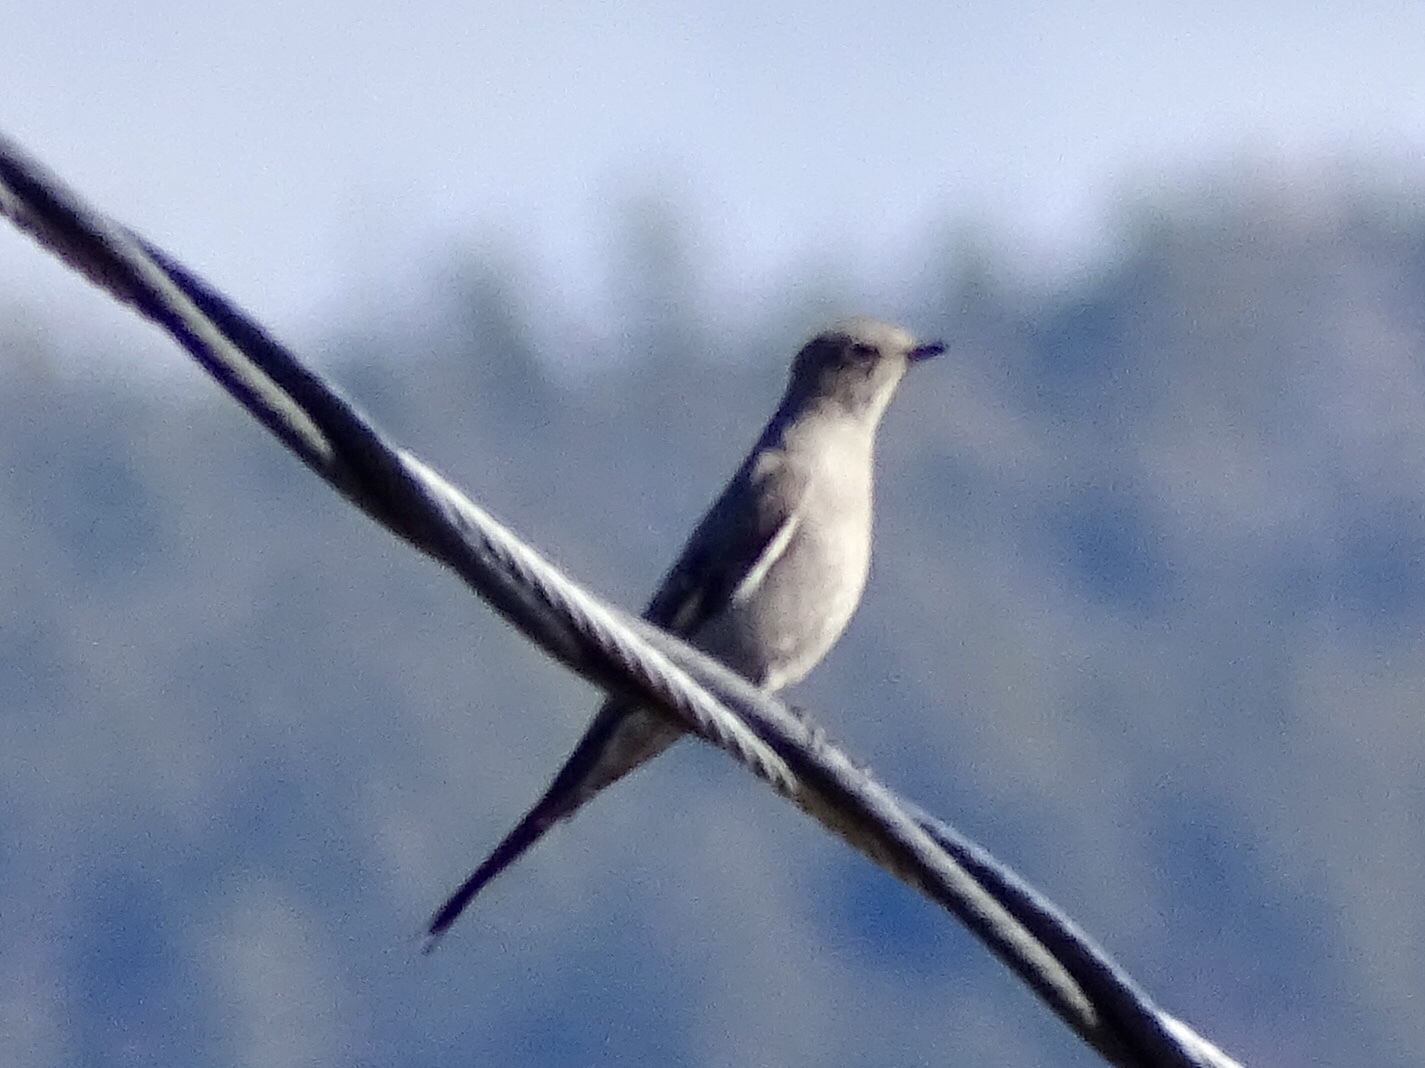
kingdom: Animalia
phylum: Chordata
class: Aves
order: Passeriformes
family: Turdidae
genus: Myadestes
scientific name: Myadestes townsendi
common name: Townsend's solitaire
